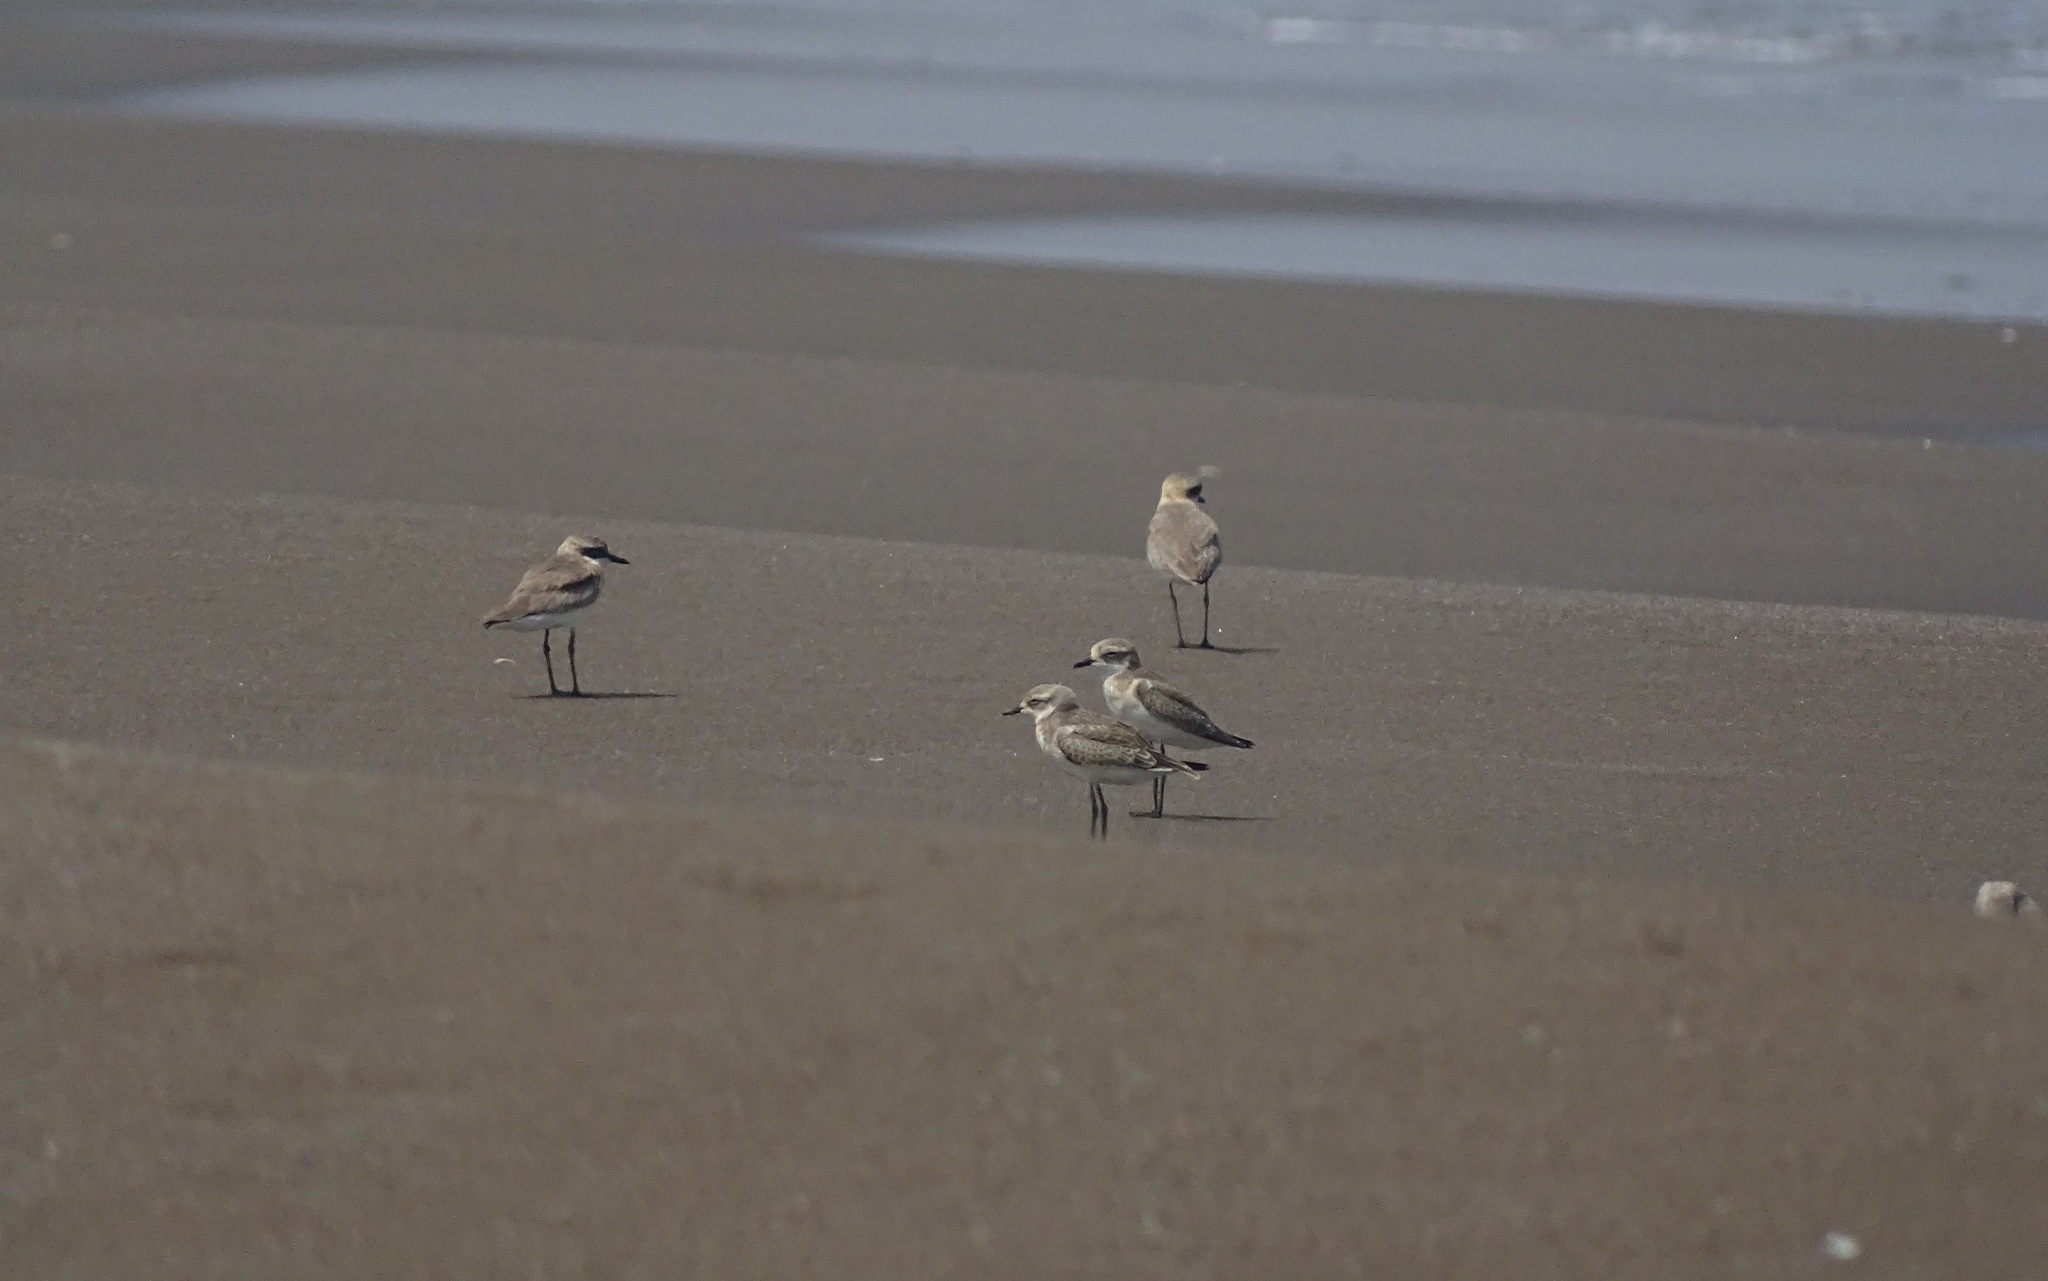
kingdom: Animalia
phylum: Chordata
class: Aves
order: Charadriiformes
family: Charadriidae
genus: Charadrius
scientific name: Charadrius leschenaultii
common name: Greater sand plover
